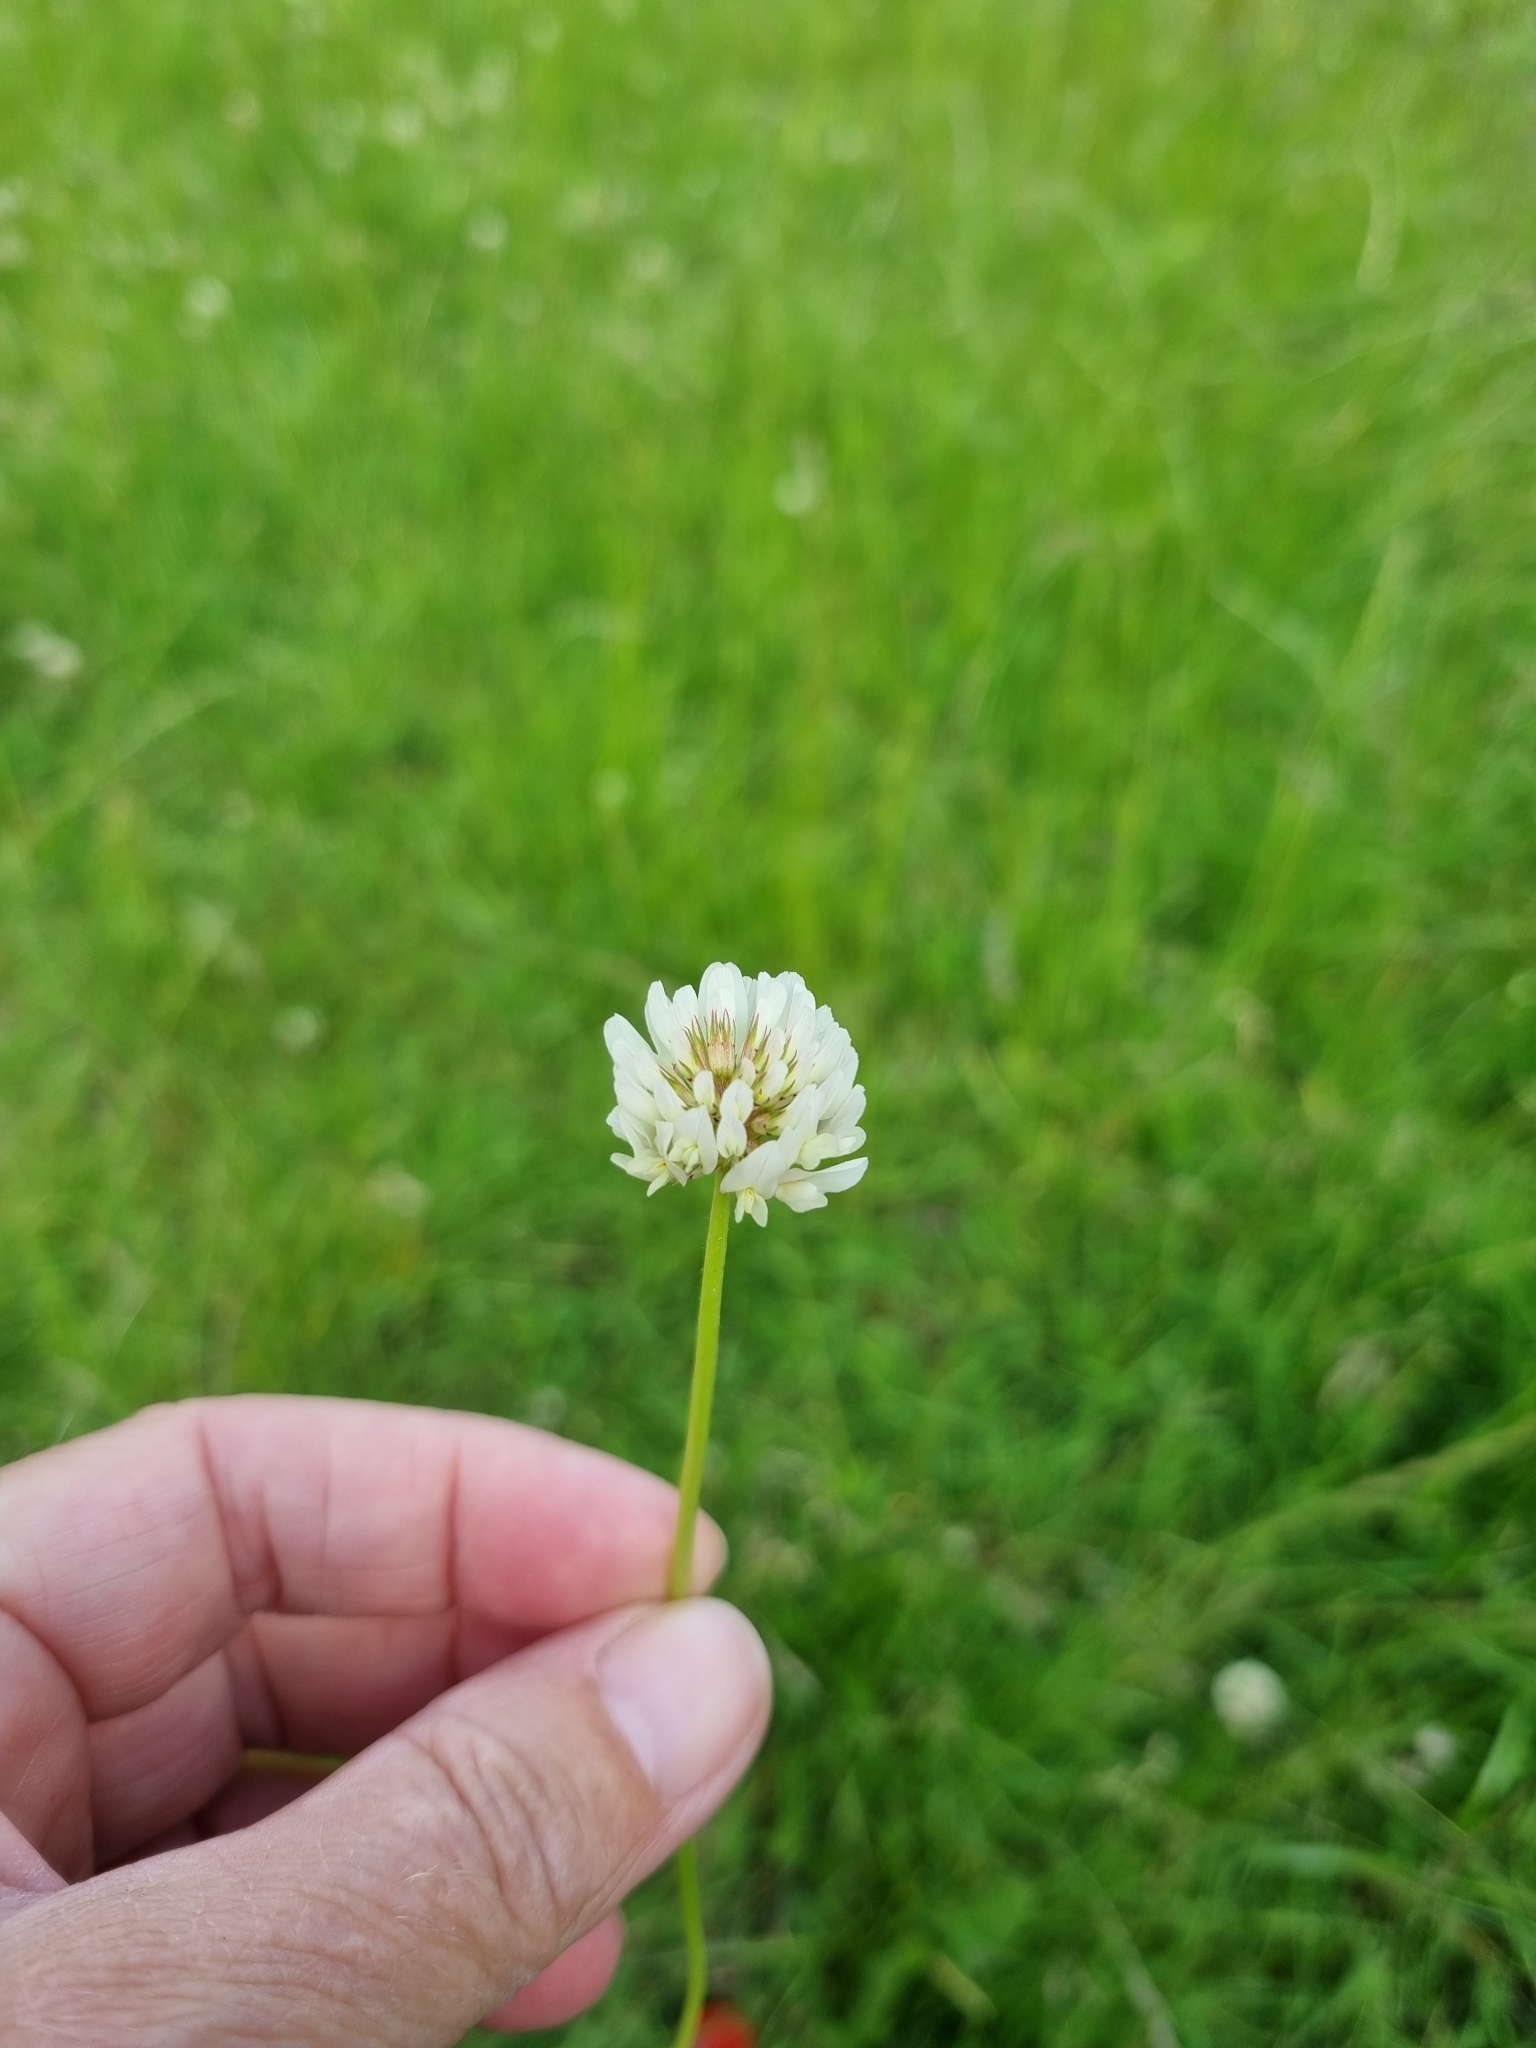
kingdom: Plantae
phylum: Tracheophyta
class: Magnoliopsida
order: Fabales
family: Fabaceae
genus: Trifolium
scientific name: Trifolium repens
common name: White clover
